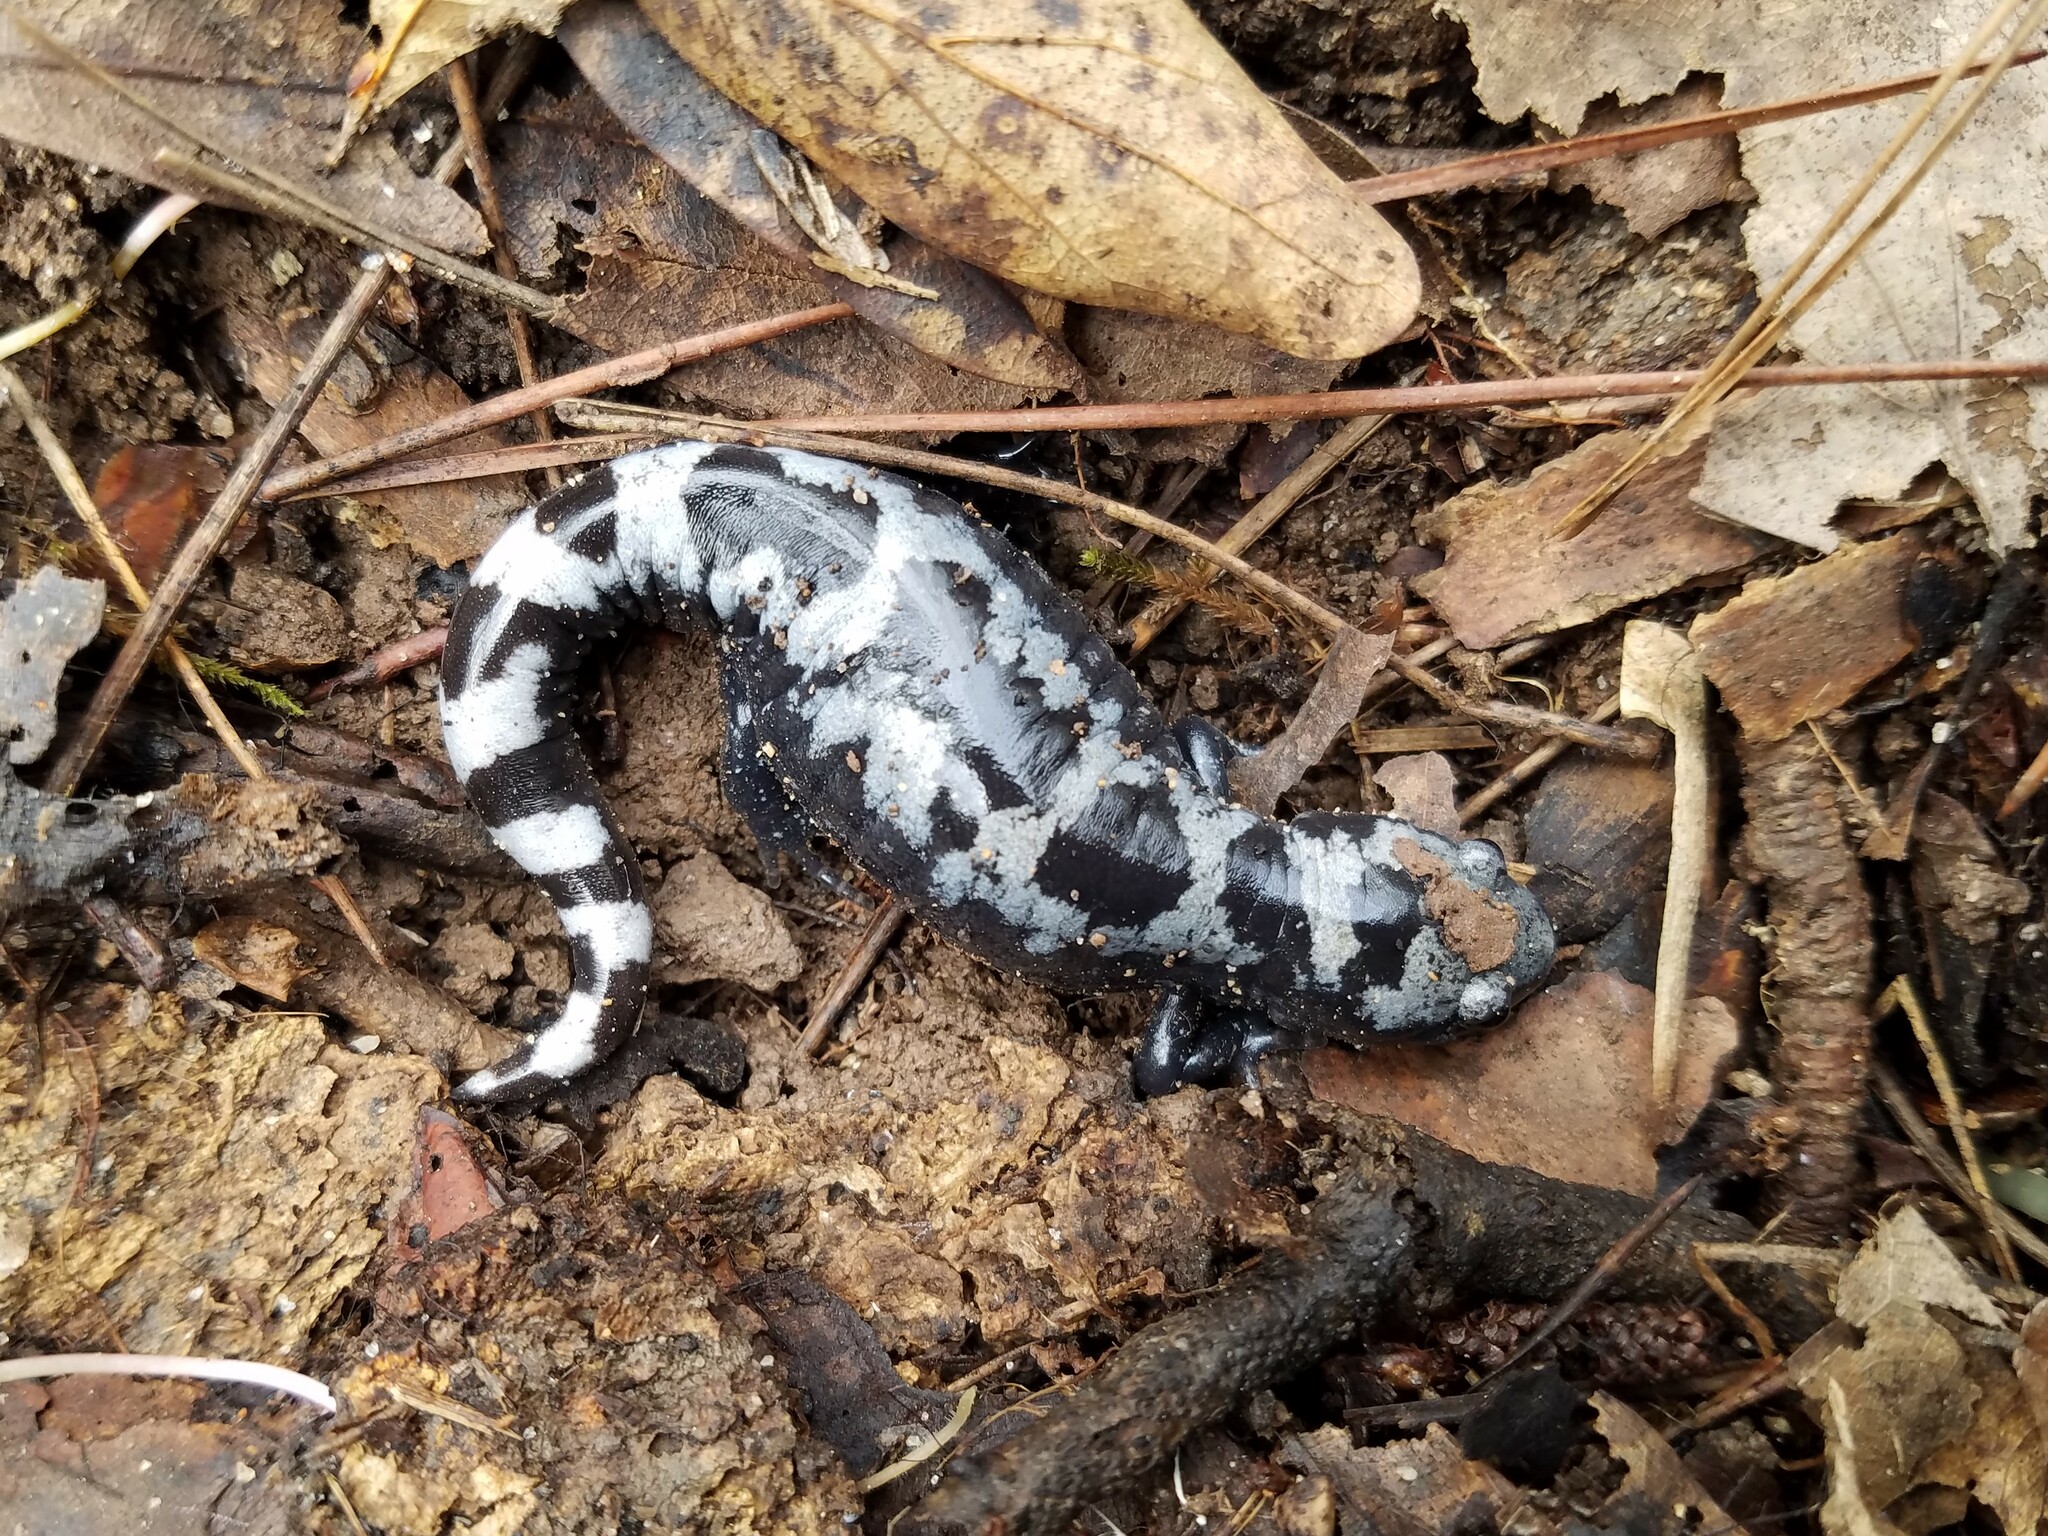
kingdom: Animalia
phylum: Chordata
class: Amphibia
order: Caudata
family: Ambystomatidae
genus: Ambystoma
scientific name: Ambystoma opacum
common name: Marbled salamander
